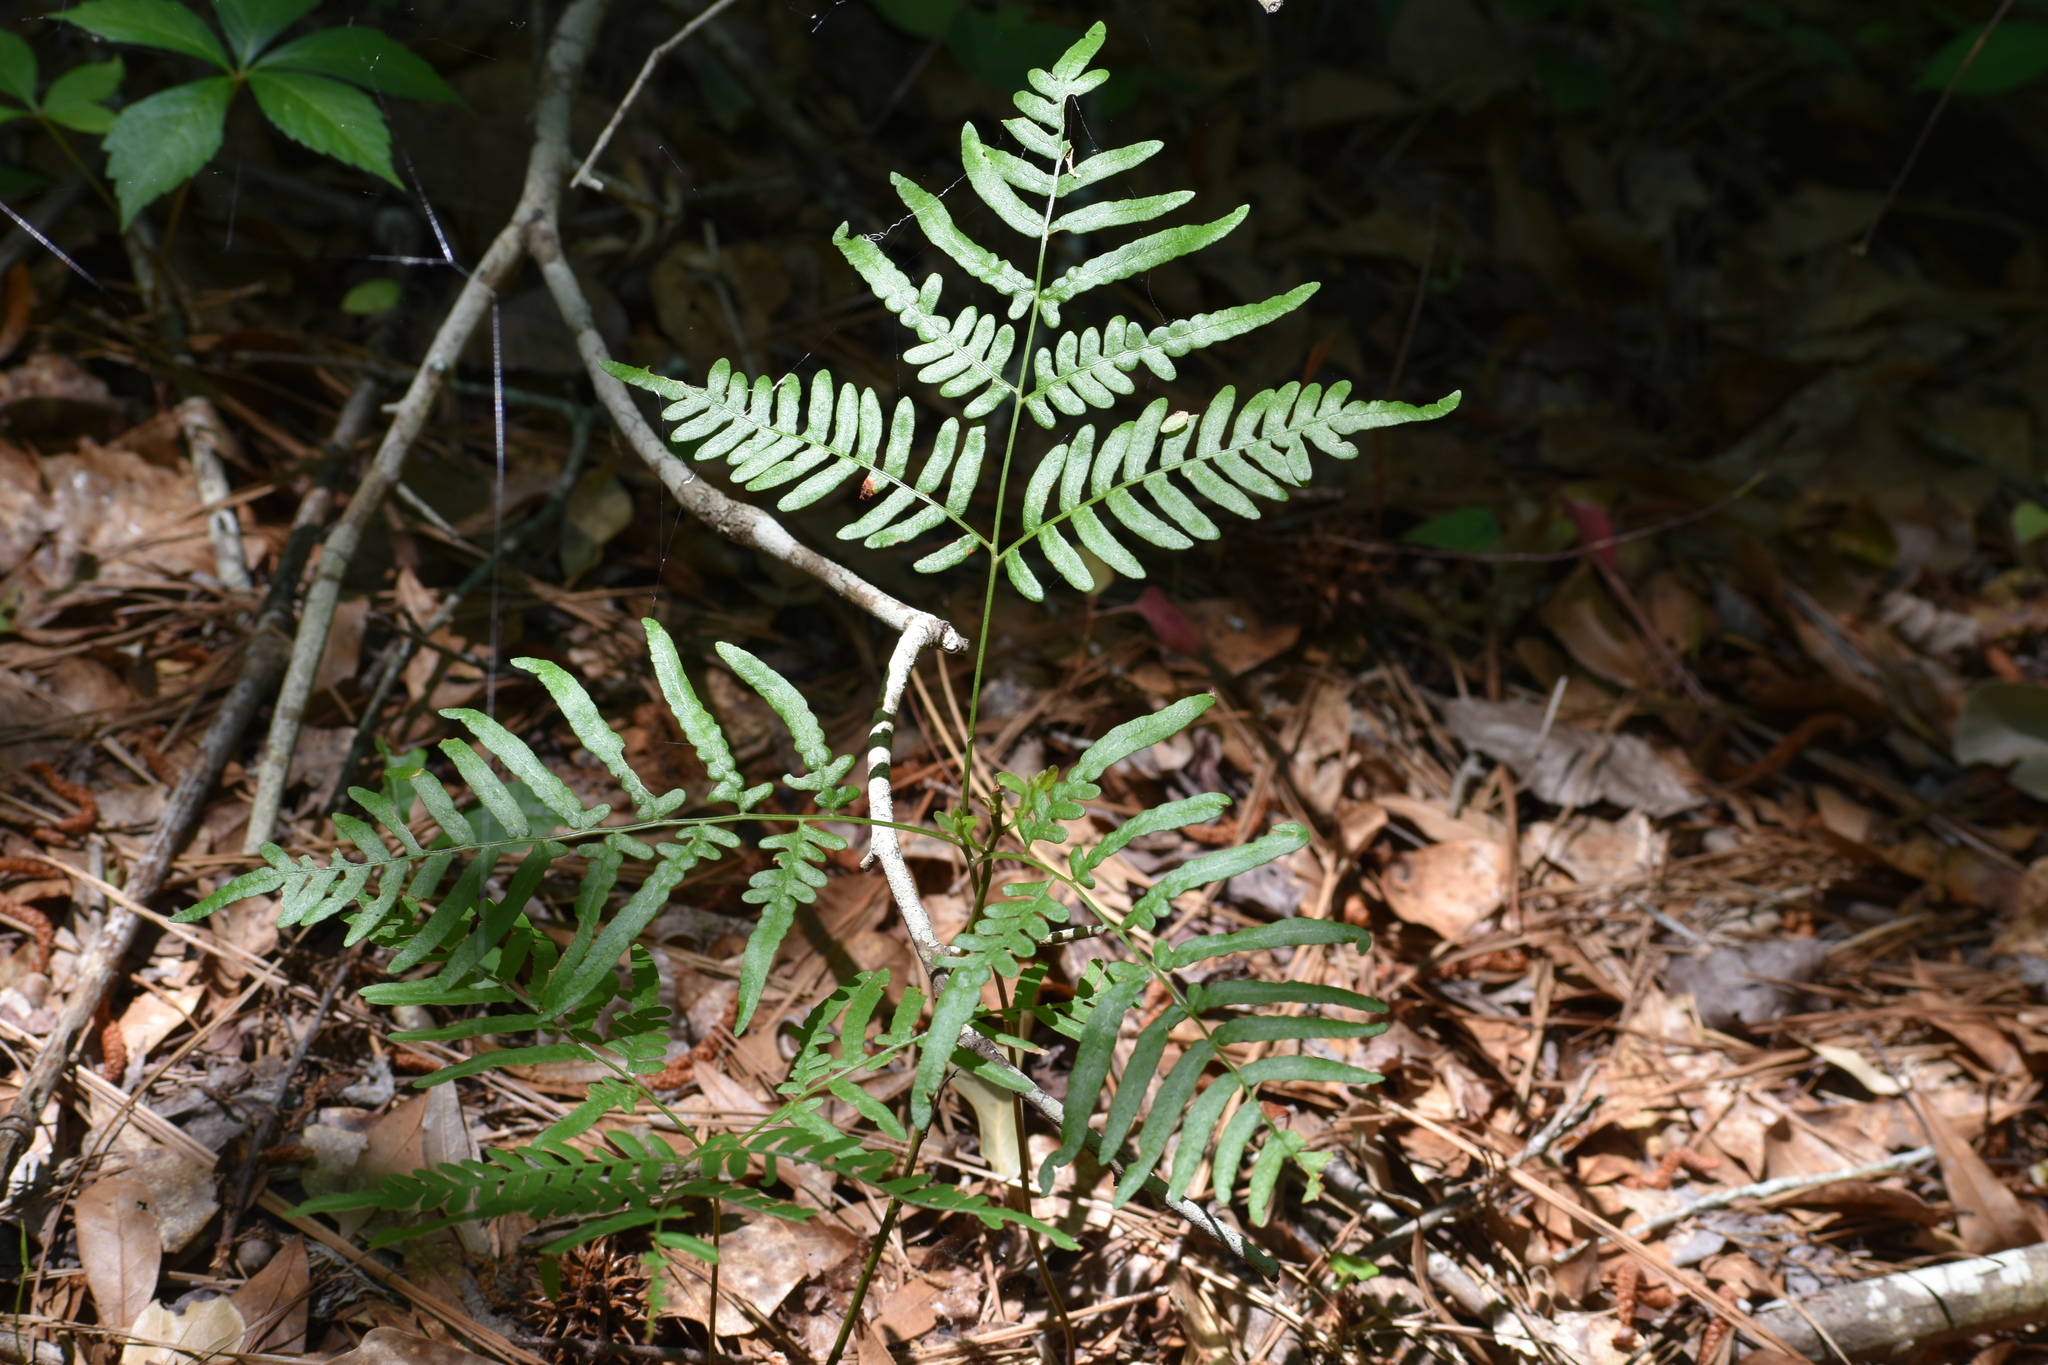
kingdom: Plantae
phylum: Tracheophyta
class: Polypodiopsida
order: Polypodiales
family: Dennstaedtiaceae
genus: Pteridium
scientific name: Pteridium
